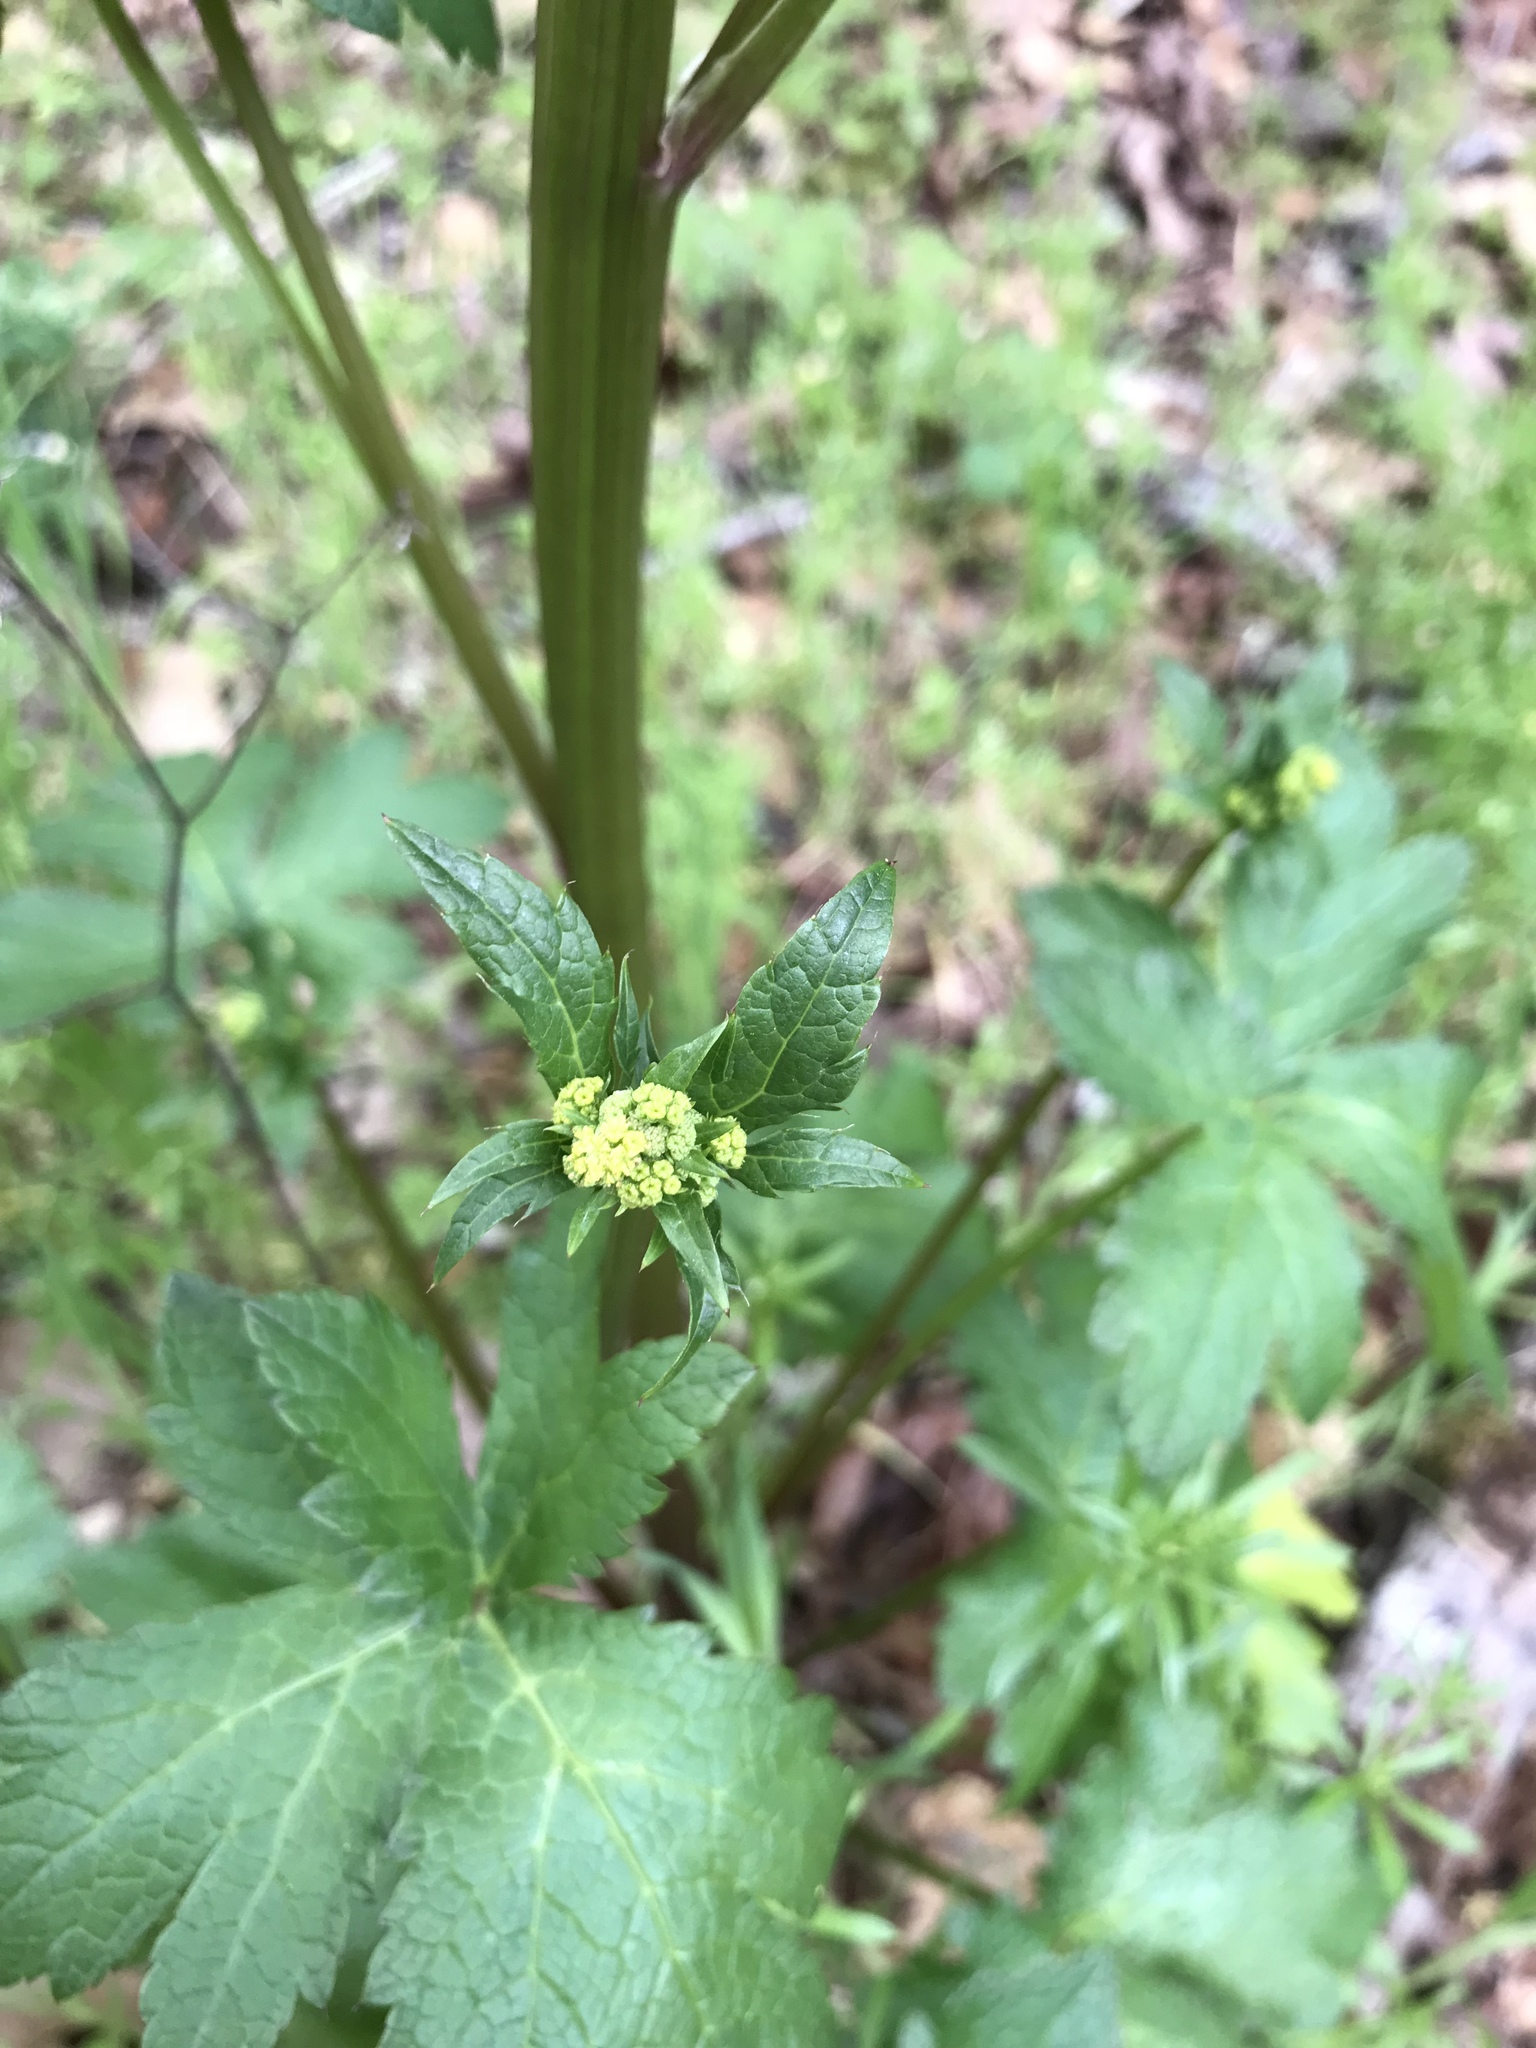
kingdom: Plantae
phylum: Tracheophyta
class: Magnoliopsida
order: Apiales
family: Apiaceae
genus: Sanicula
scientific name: Sanicula crassicaulis
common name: Western snakeroot
